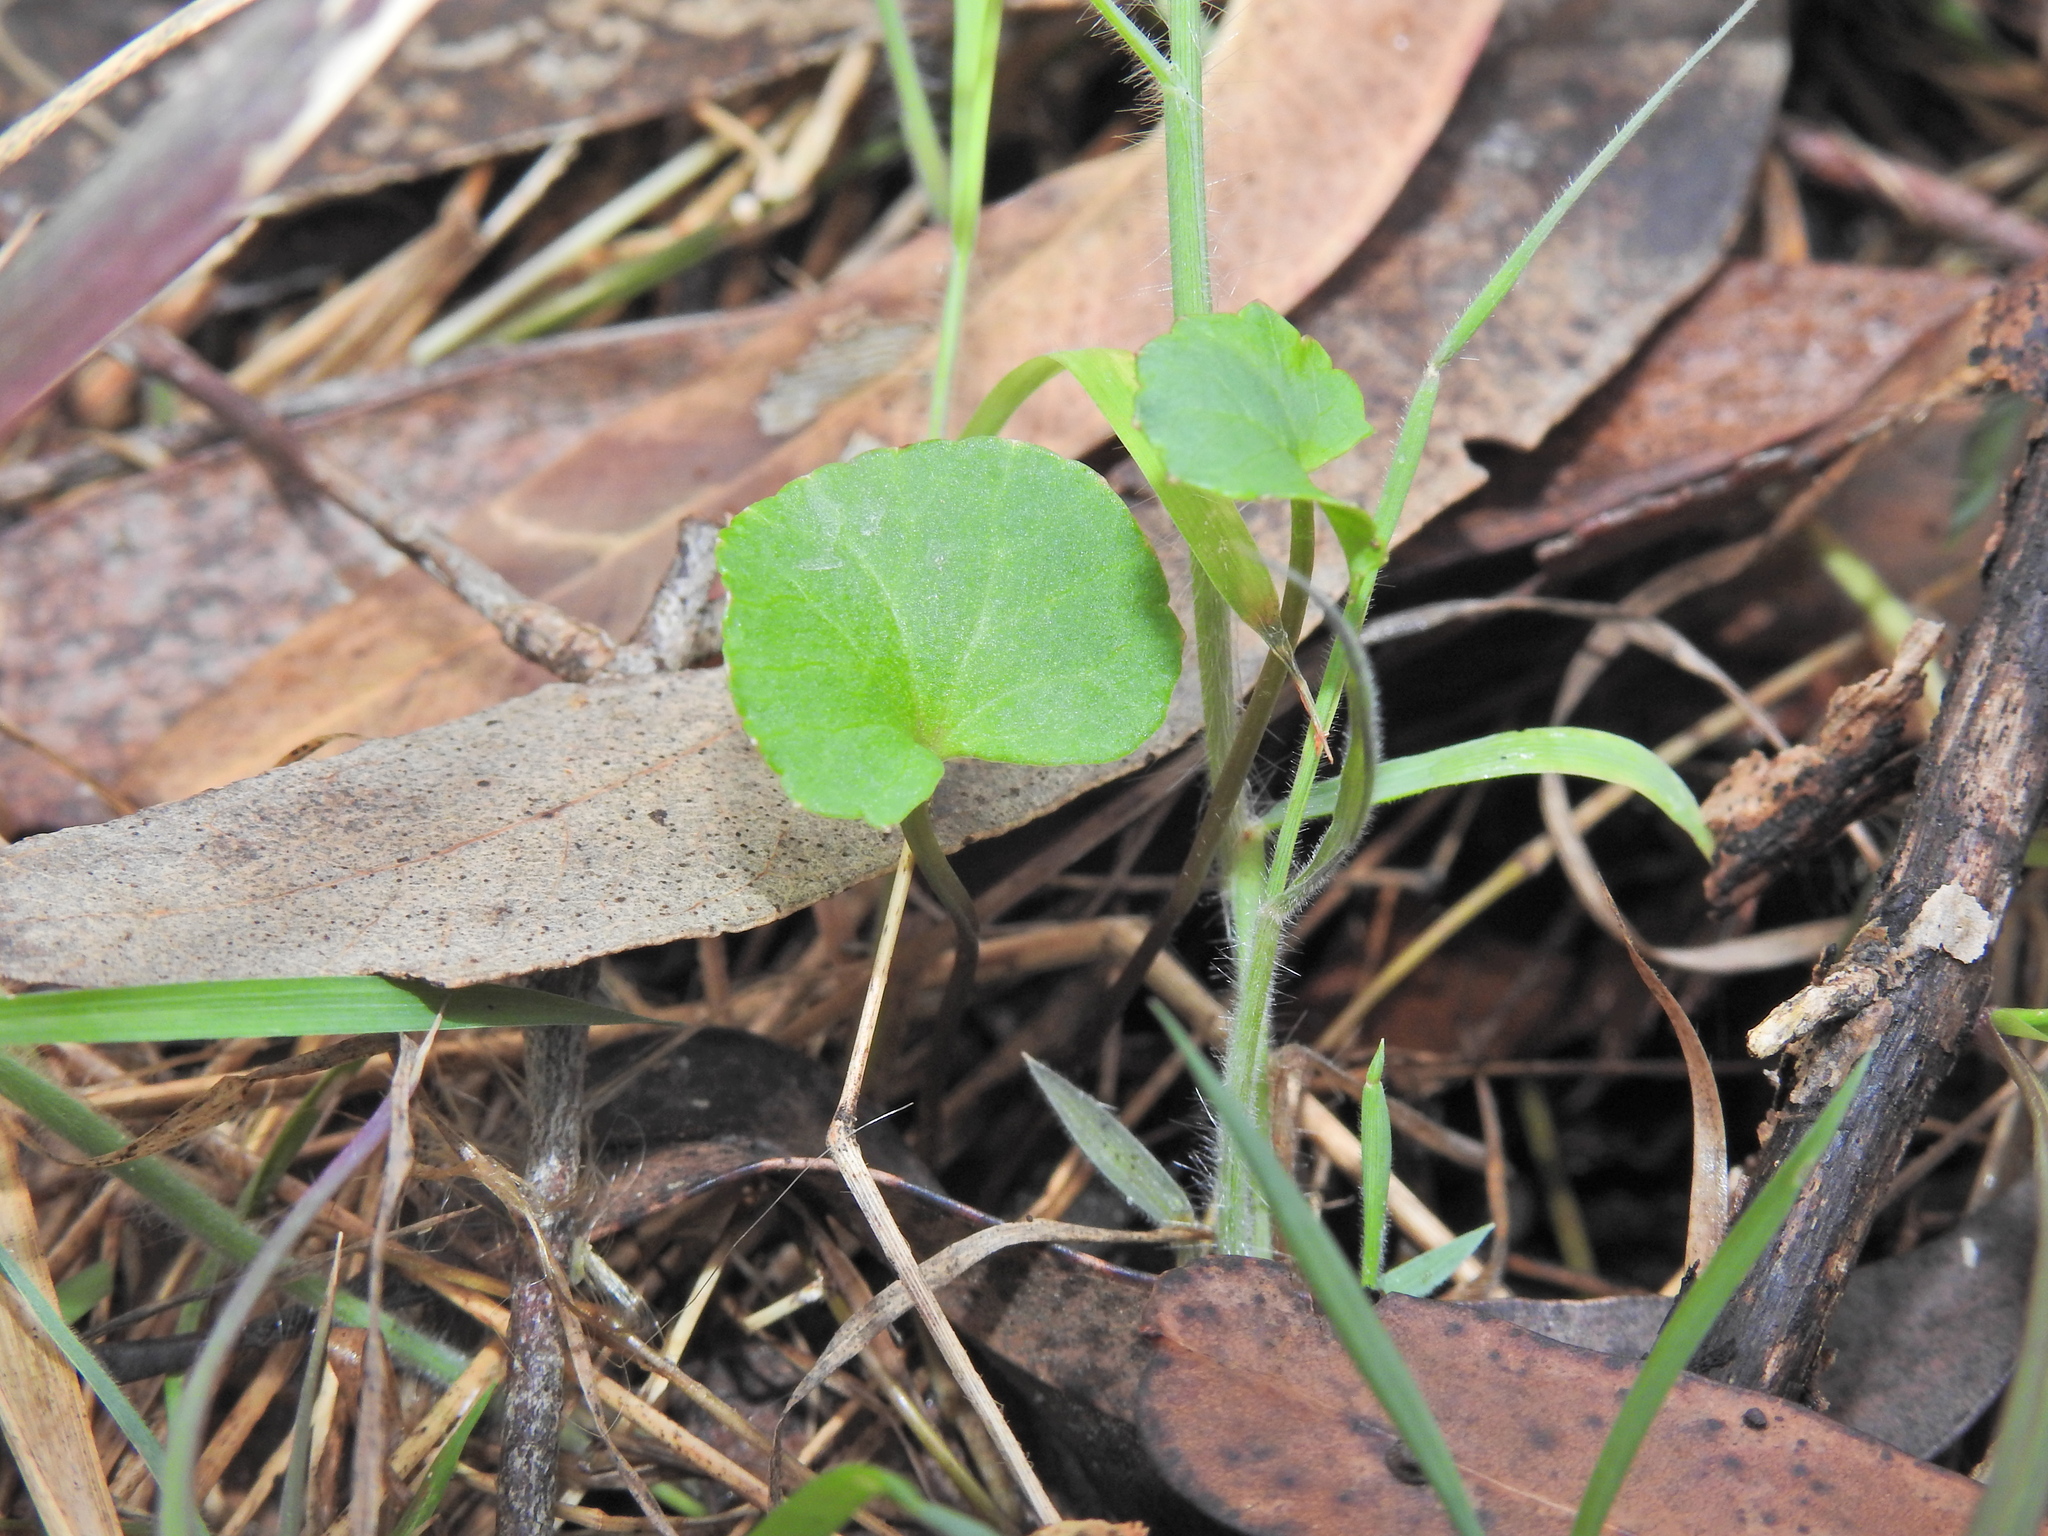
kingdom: Plantae
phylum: Tracheophyta
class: Magnoliopsida
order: Apiales
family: Apiaceae
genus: Centella
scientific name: Centella asiatica
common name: Spadeleaf
